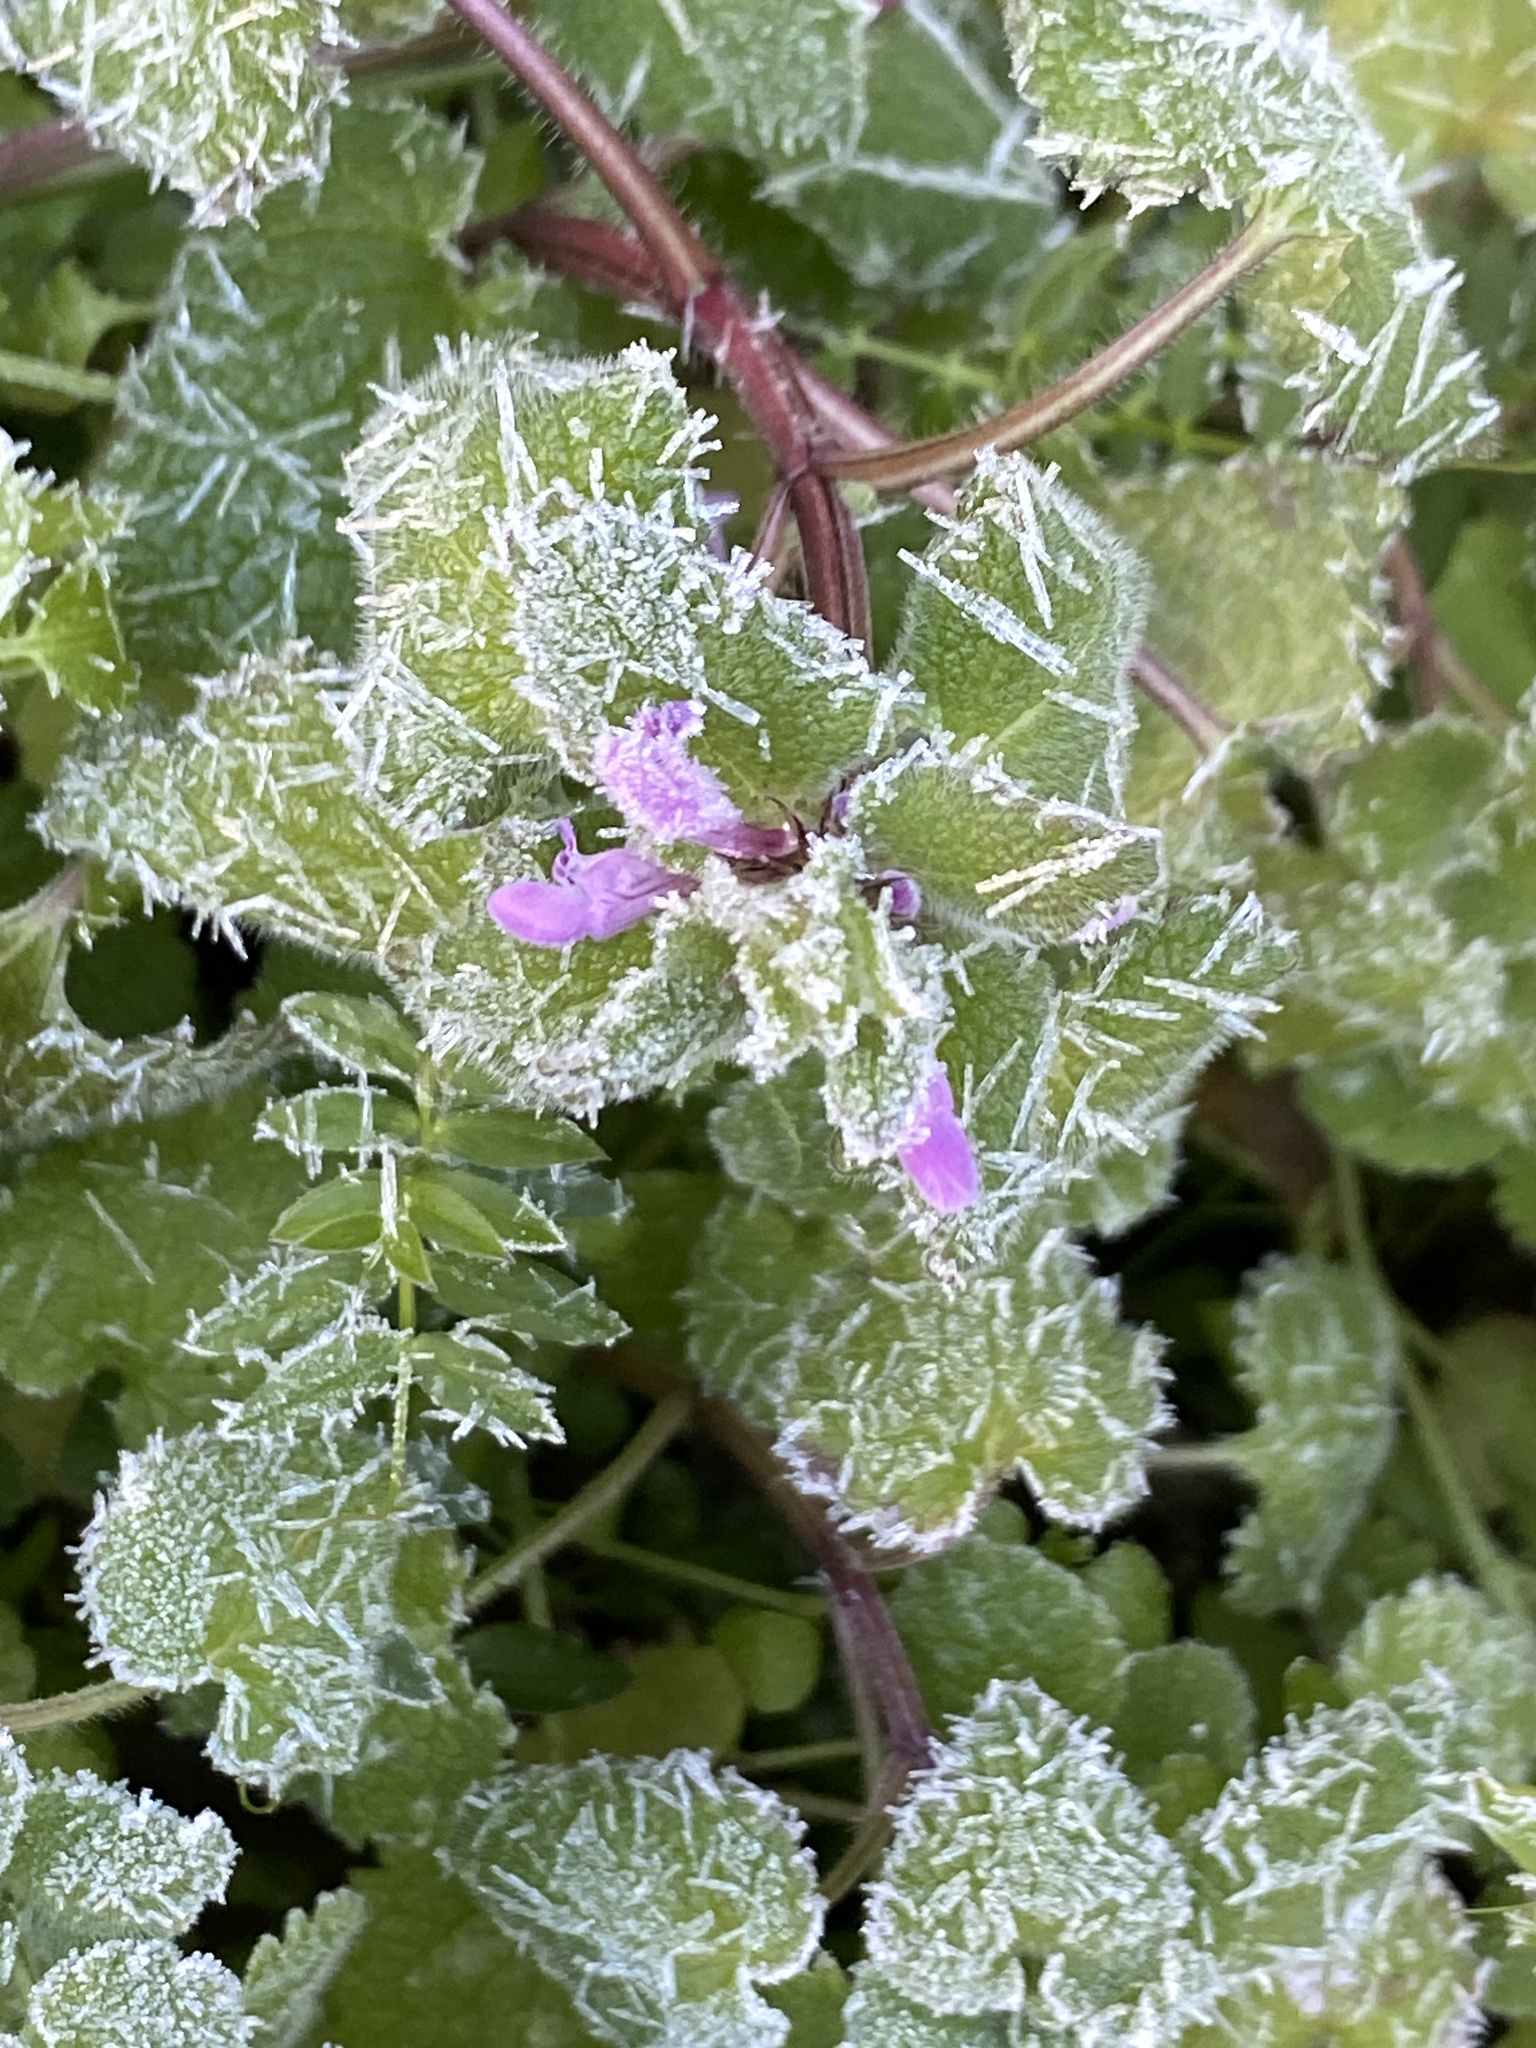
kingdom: Plantae
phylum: Tracheophyta
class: Magnoliopsida
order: Lamiales
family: Lamiaceae
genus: Lamium
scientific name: Lamium purpureum
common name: Red dead-nettle
